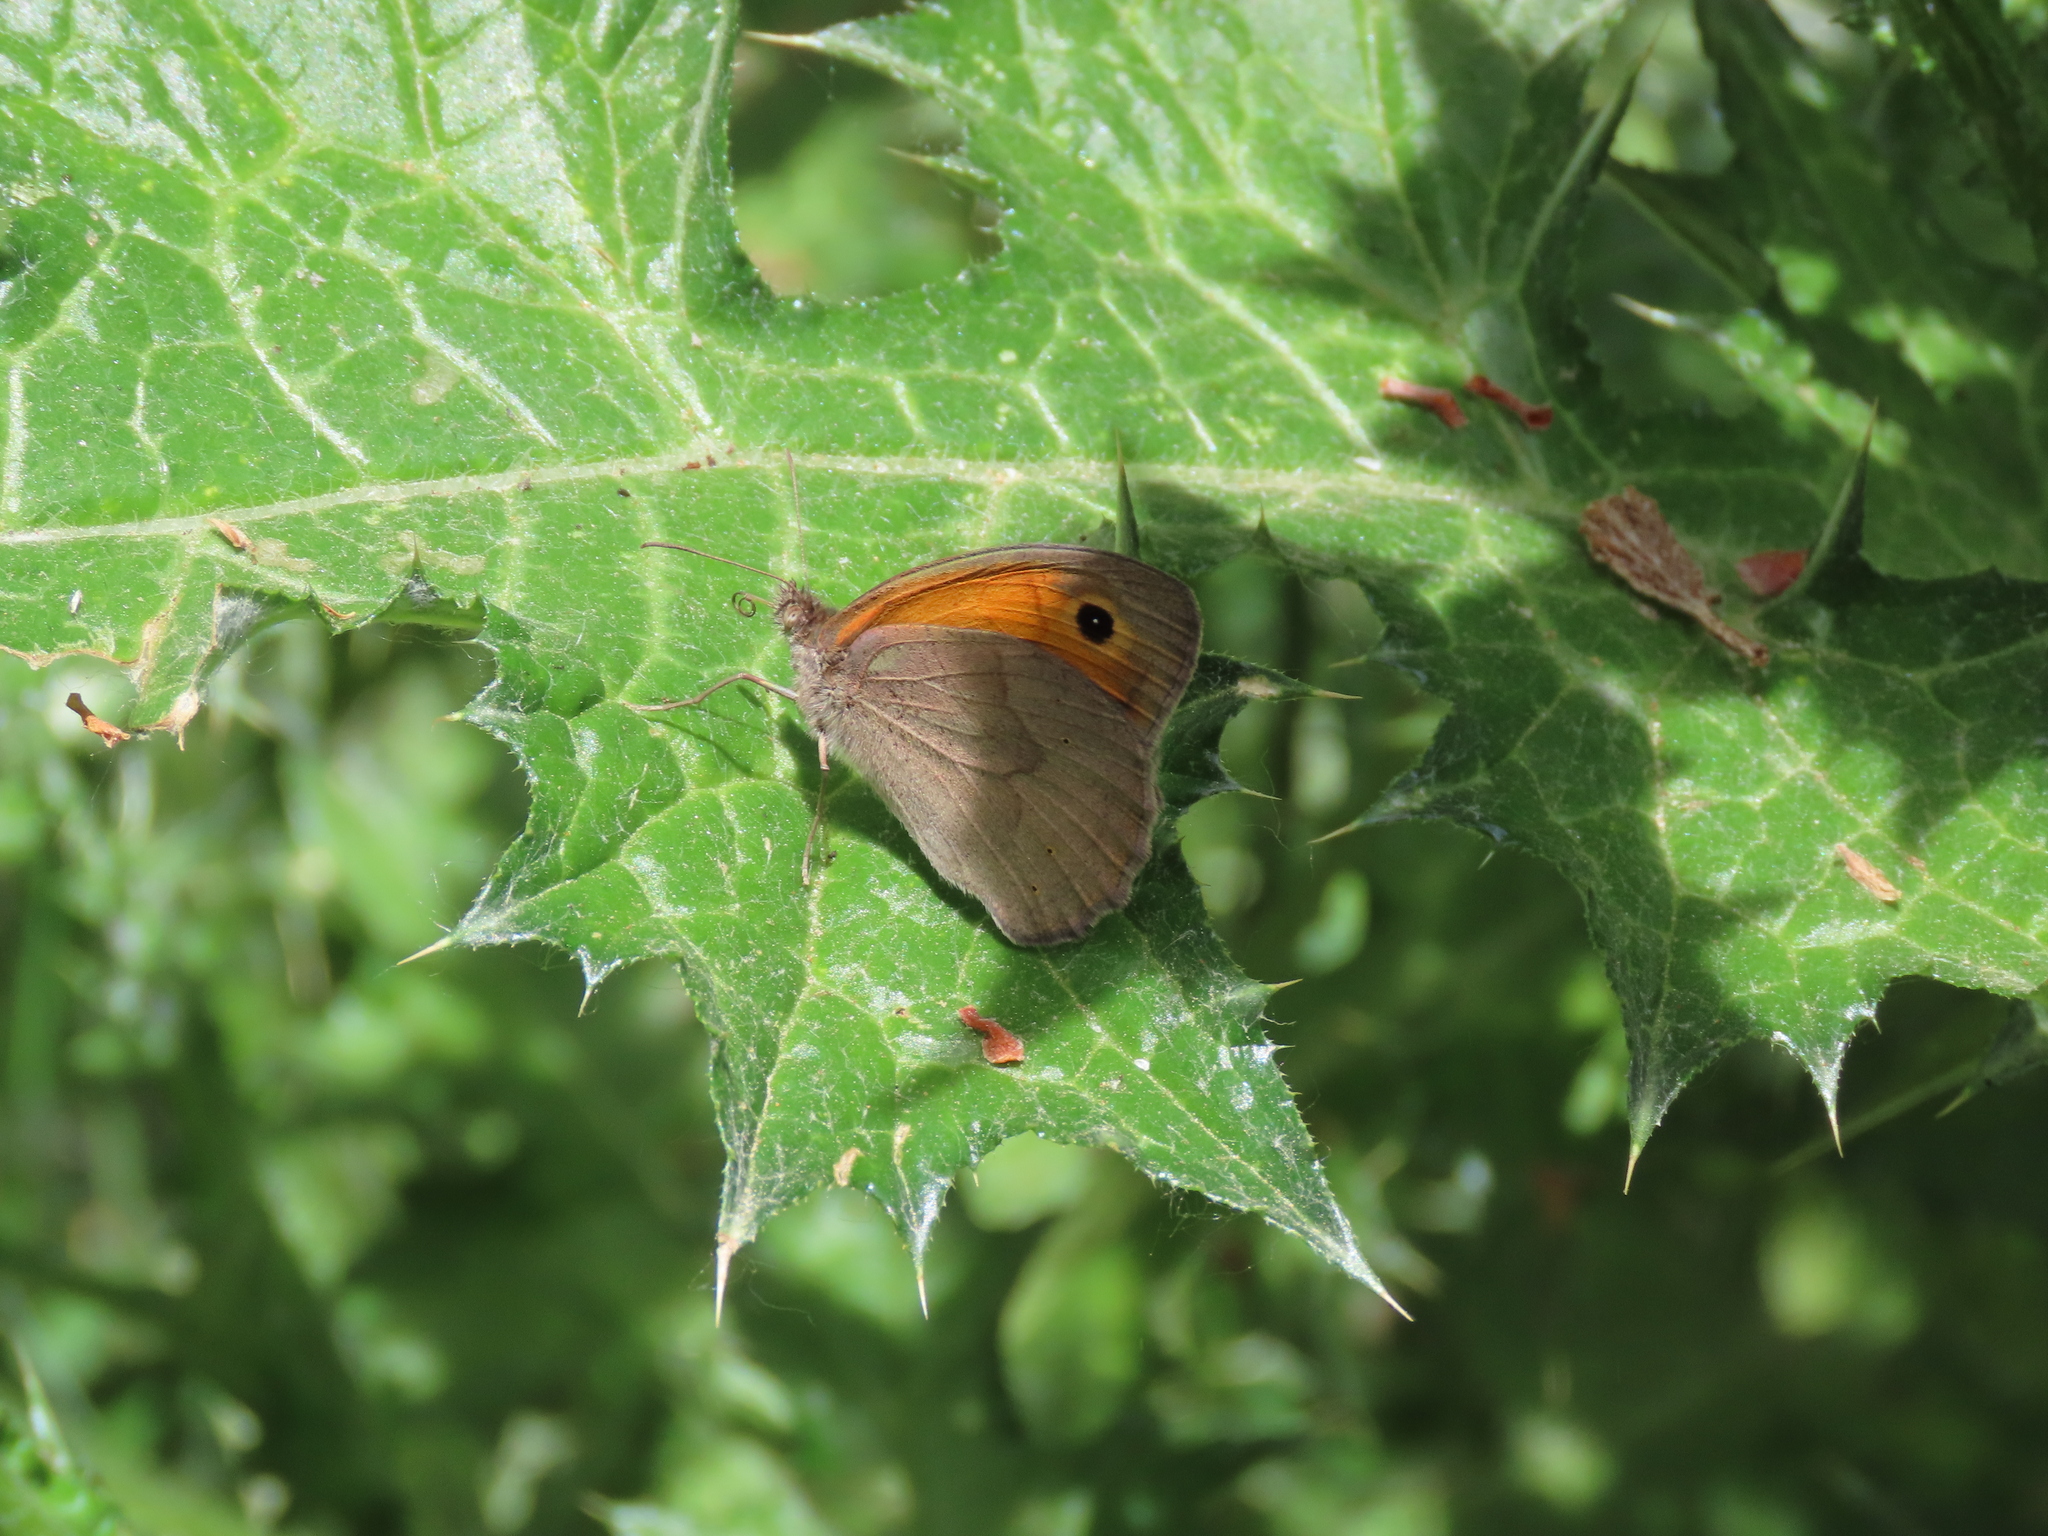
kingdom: Animalia
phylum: Arthropoda
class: Insecta
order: Lepidoptera
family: Nymphalidae
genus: Maniola
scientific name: Maniola jurtina
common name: Meadow brown
